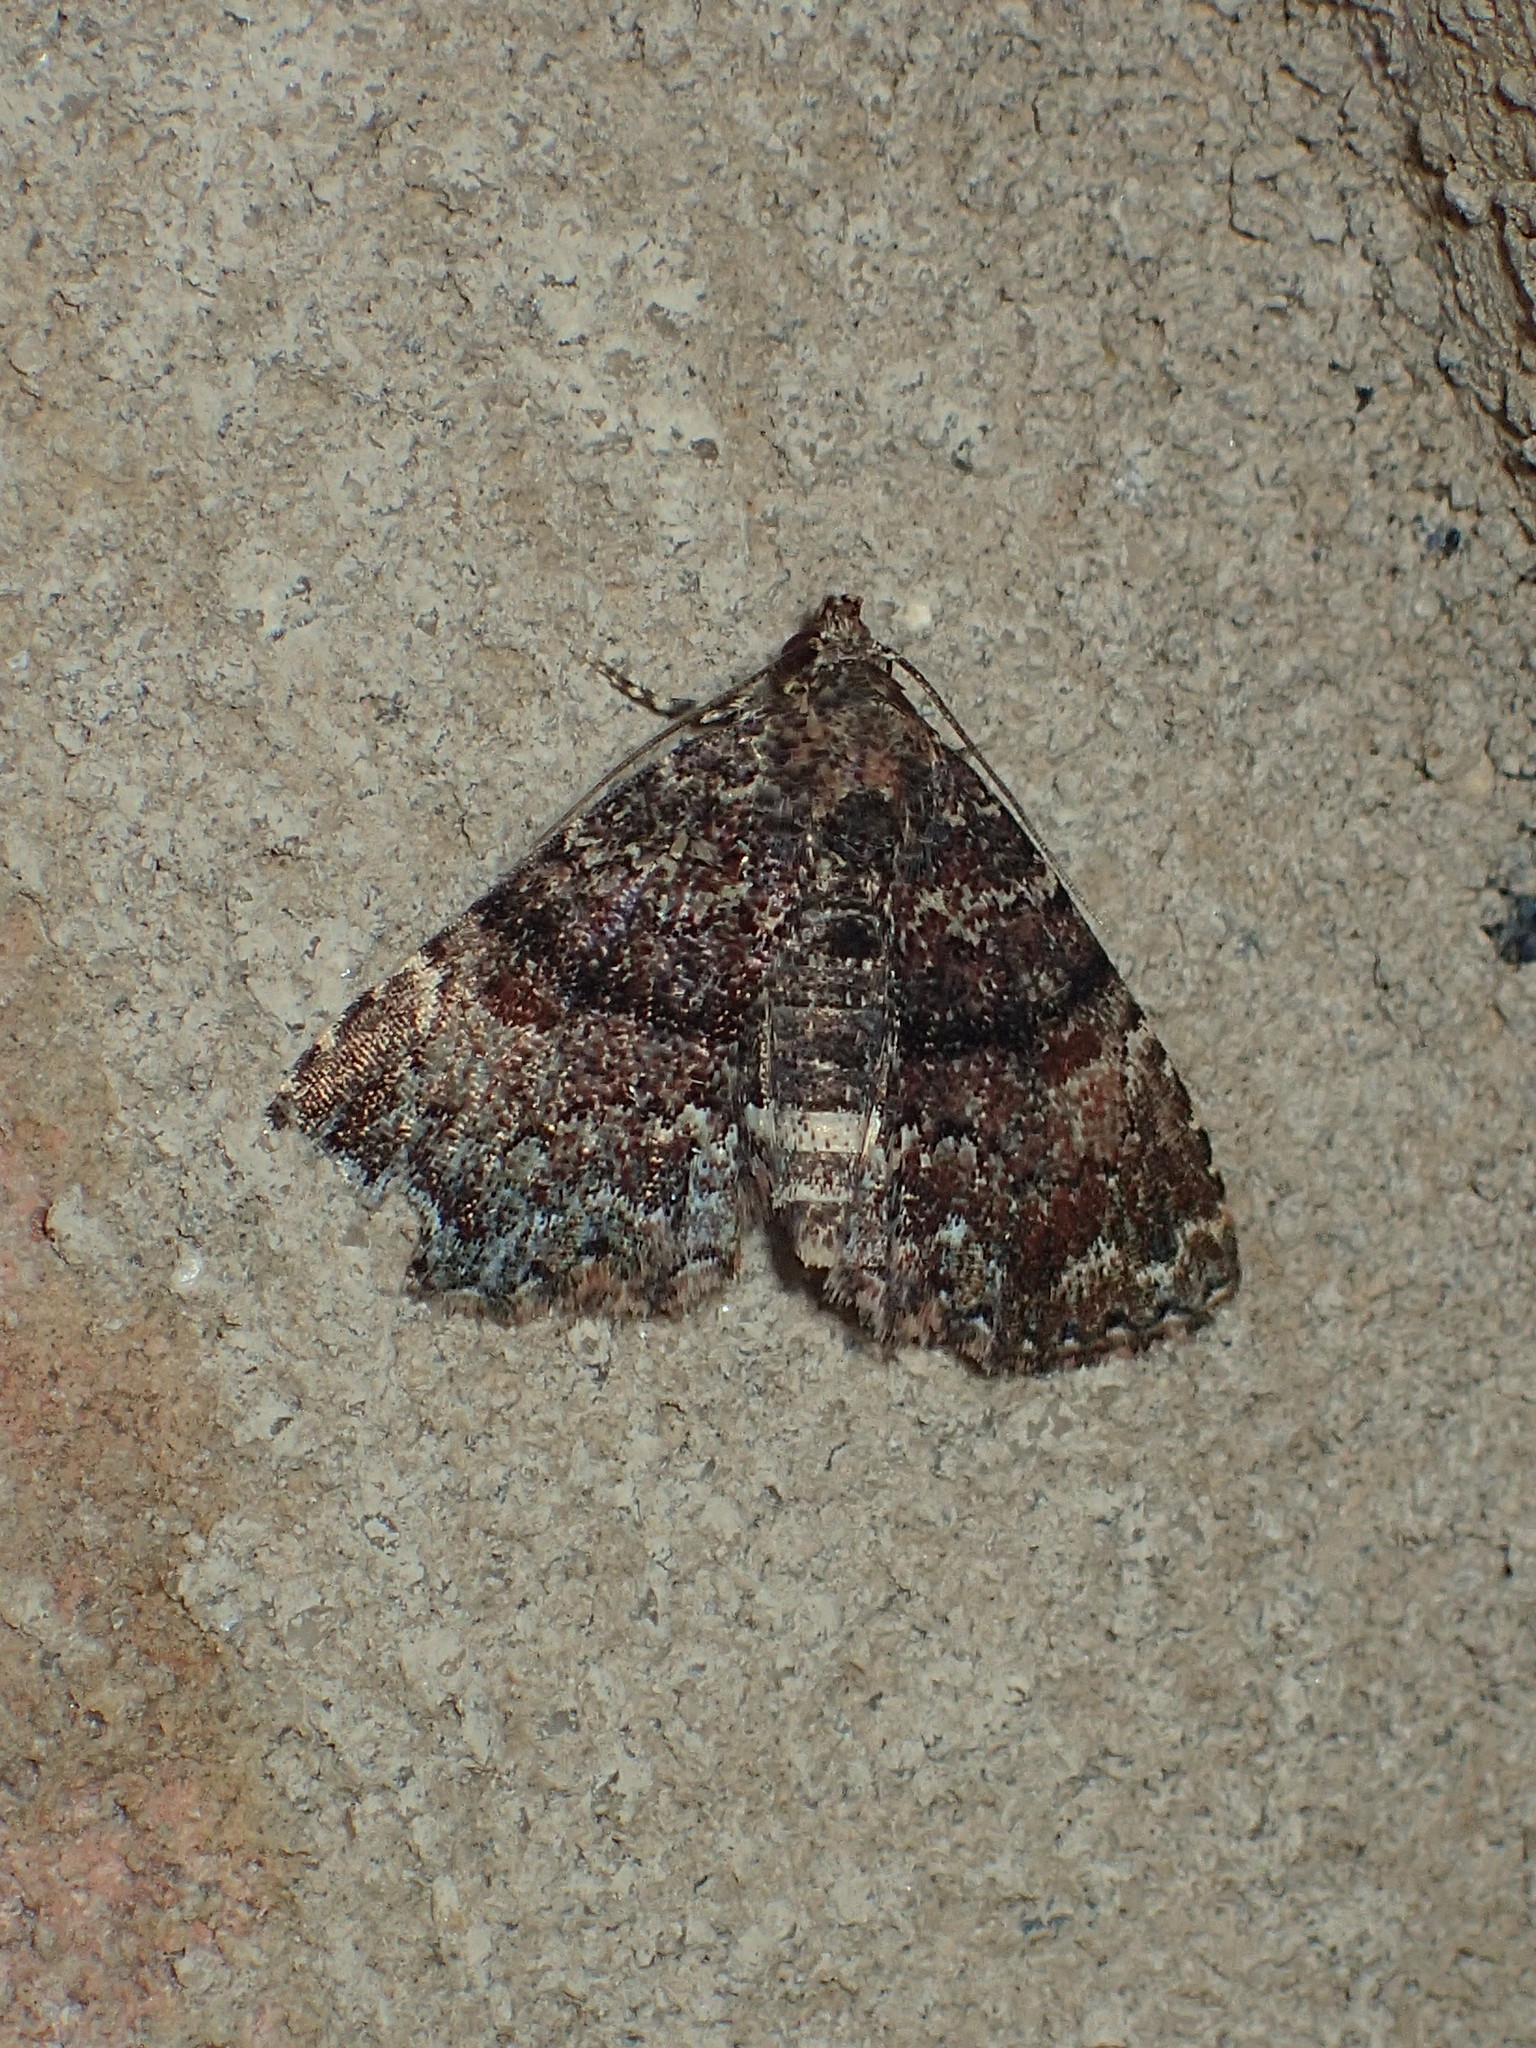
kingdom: Animalia
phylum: Arthropoda
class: Insecta
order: Lepidoptera
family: Erebidae
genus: Metalectra
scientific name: Metalectra richardsi
